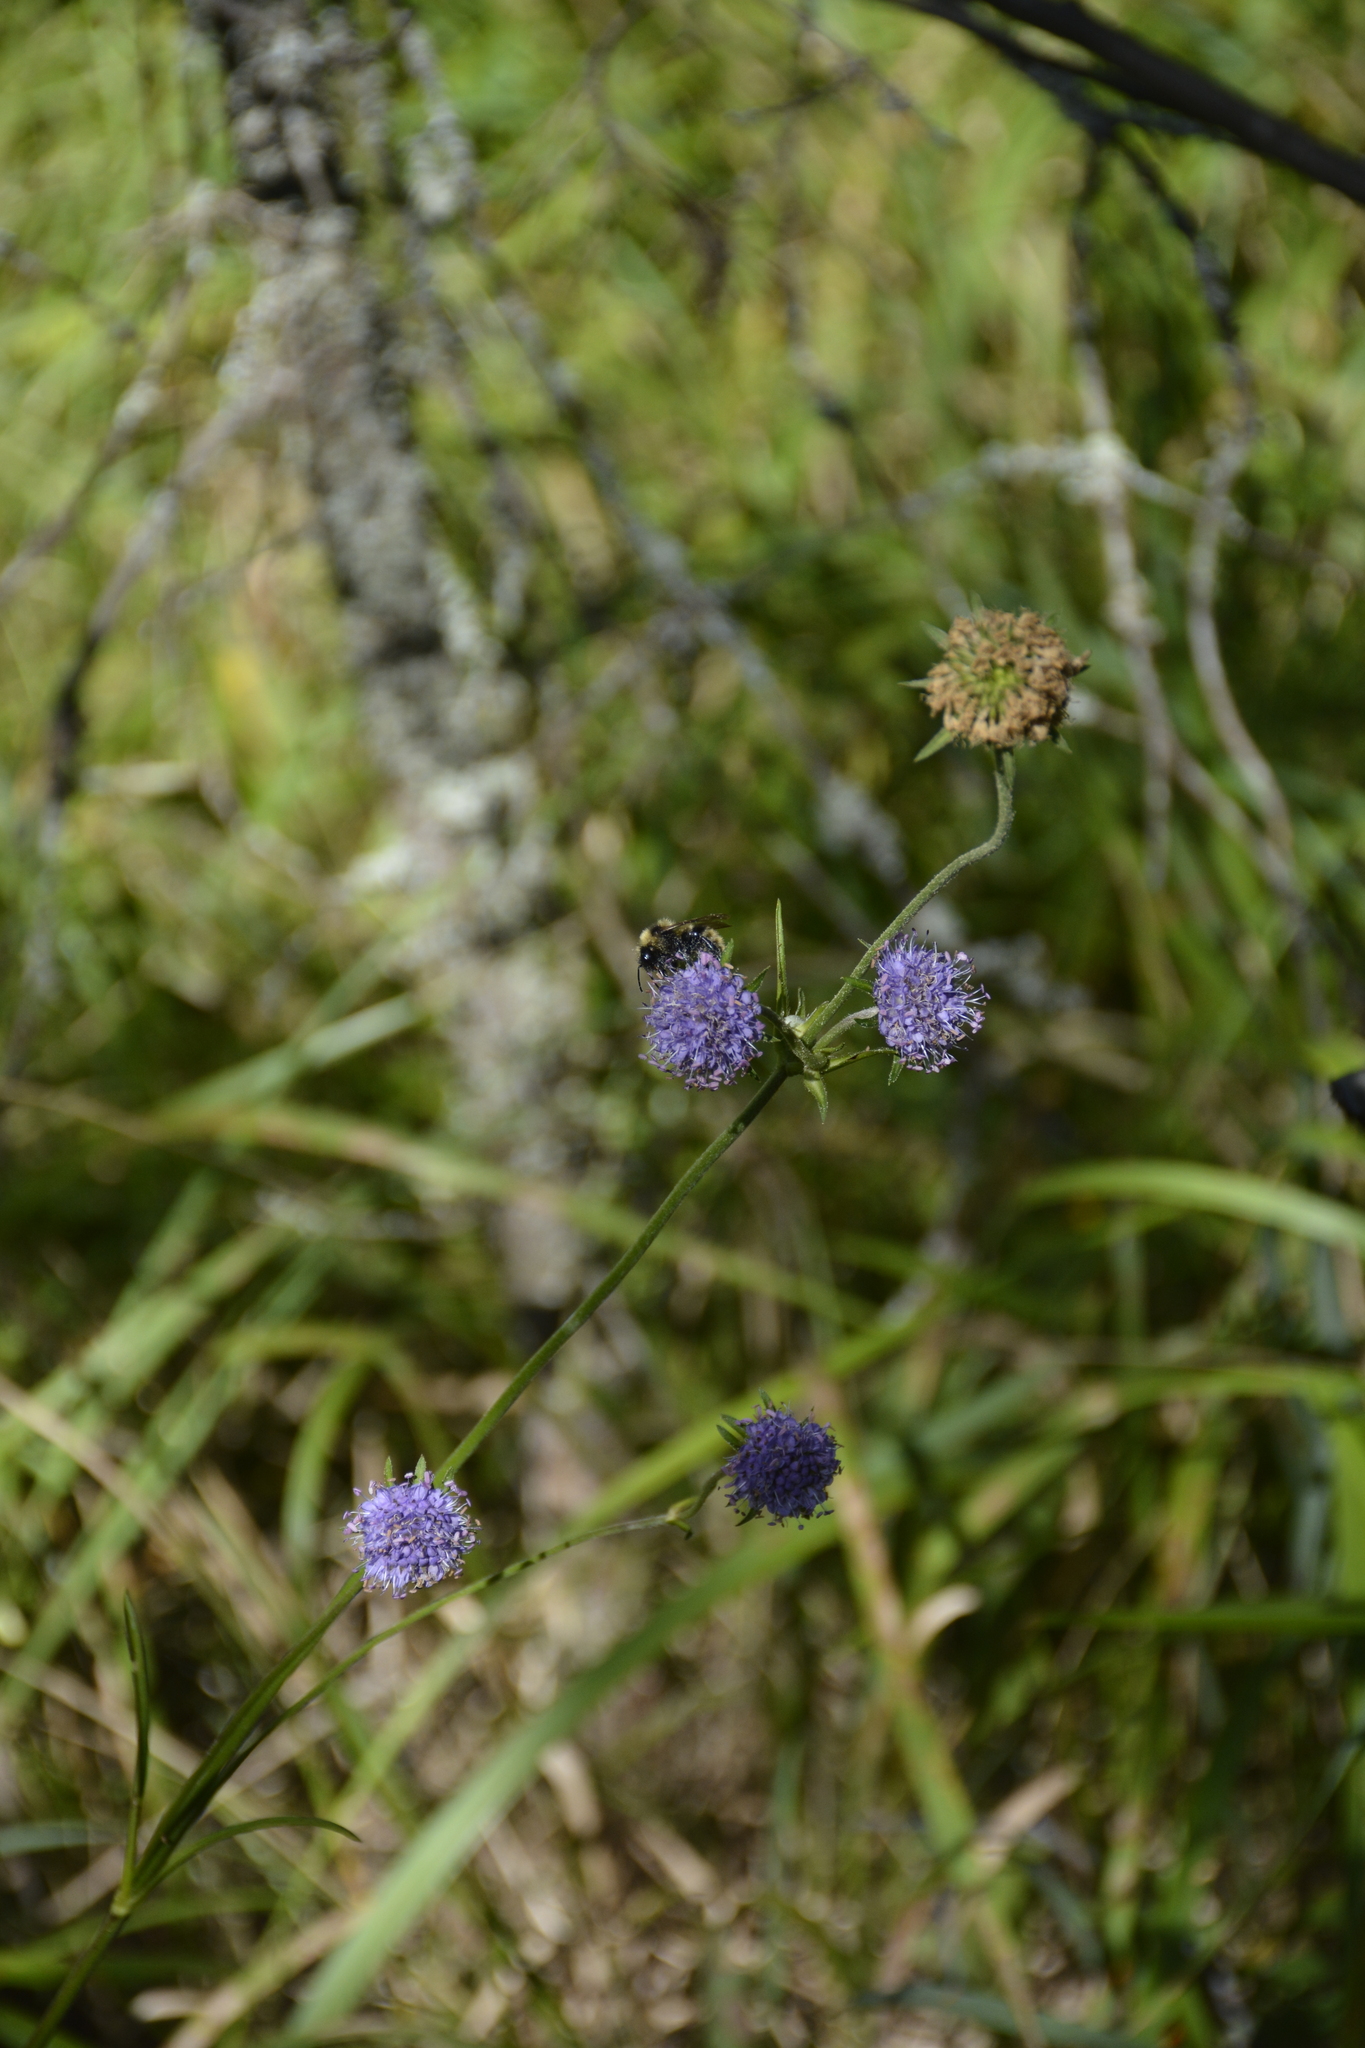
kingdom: Plantae
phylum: Tracheophyta
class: Magnoliopsida
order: Dipsacales
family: Caprifoliaceae
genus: Succisa
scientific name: Succisa pratensis
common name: Devil's-bit
